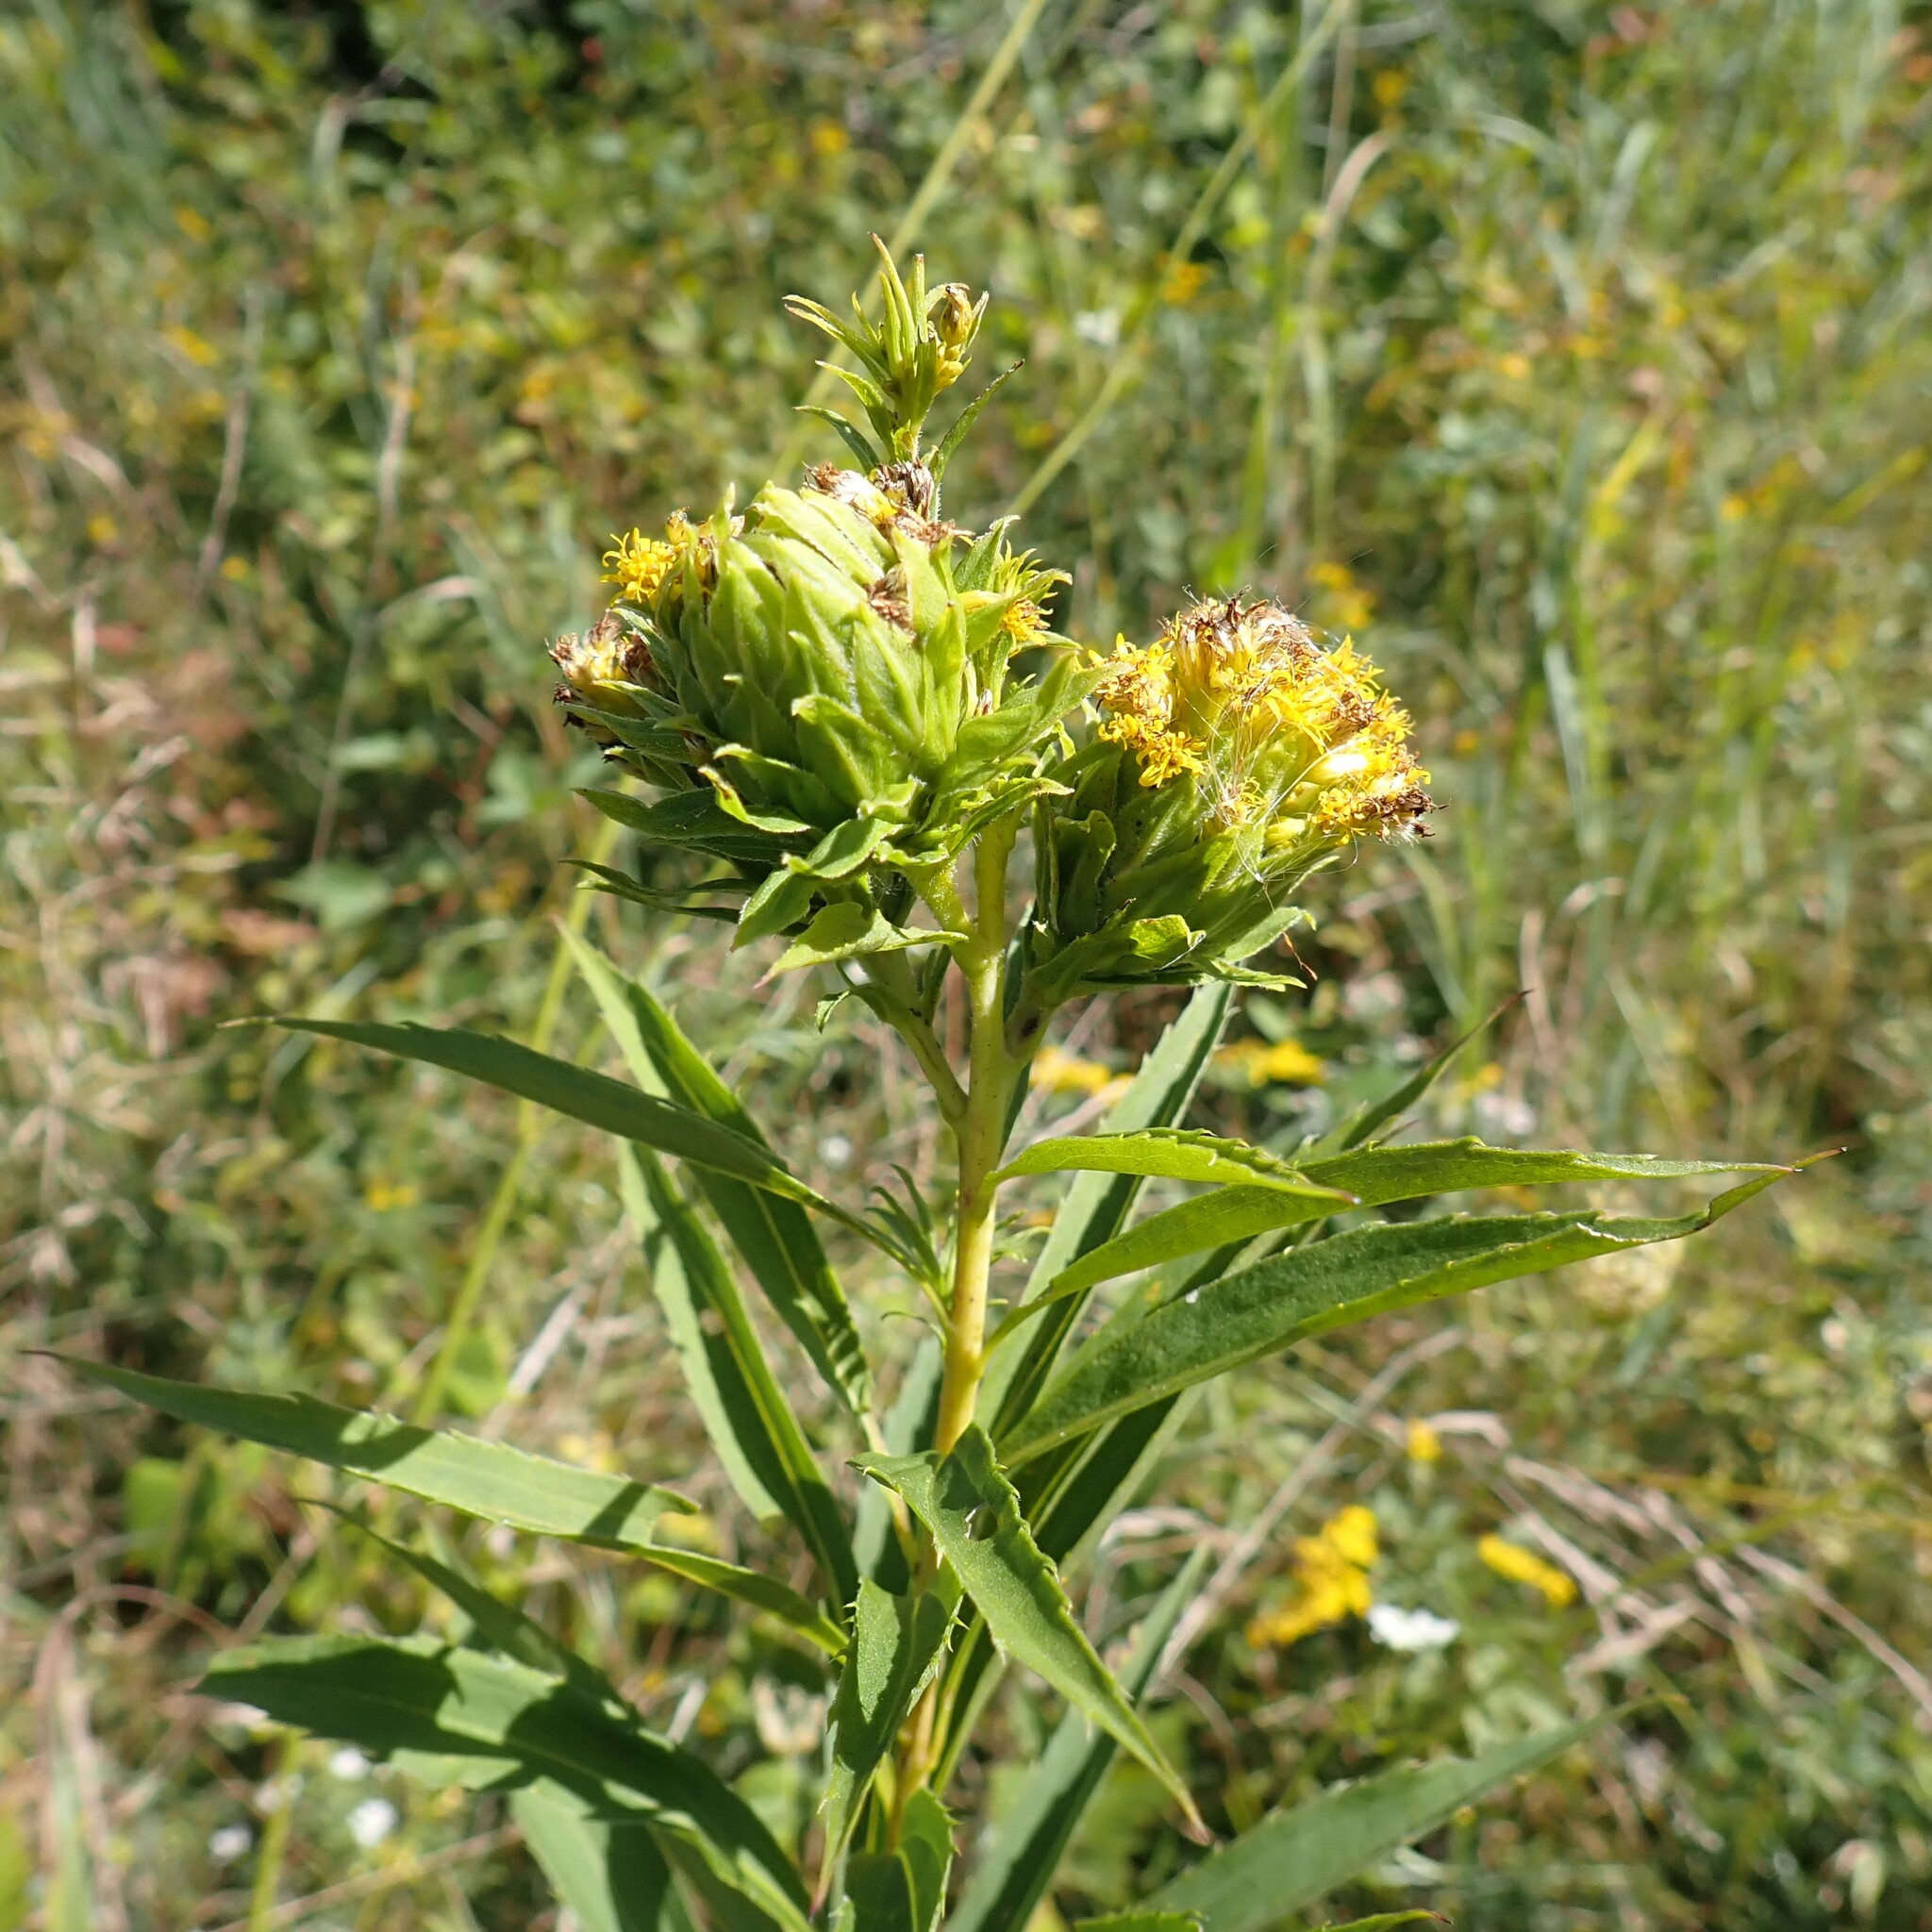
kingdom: Animalia
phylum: Arthropoda
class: Insecta
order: Diptera
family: Tephritidae
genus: Procecidochares
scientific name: Procecidochares atra
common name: Goldenrod brussels sprout gall fly
